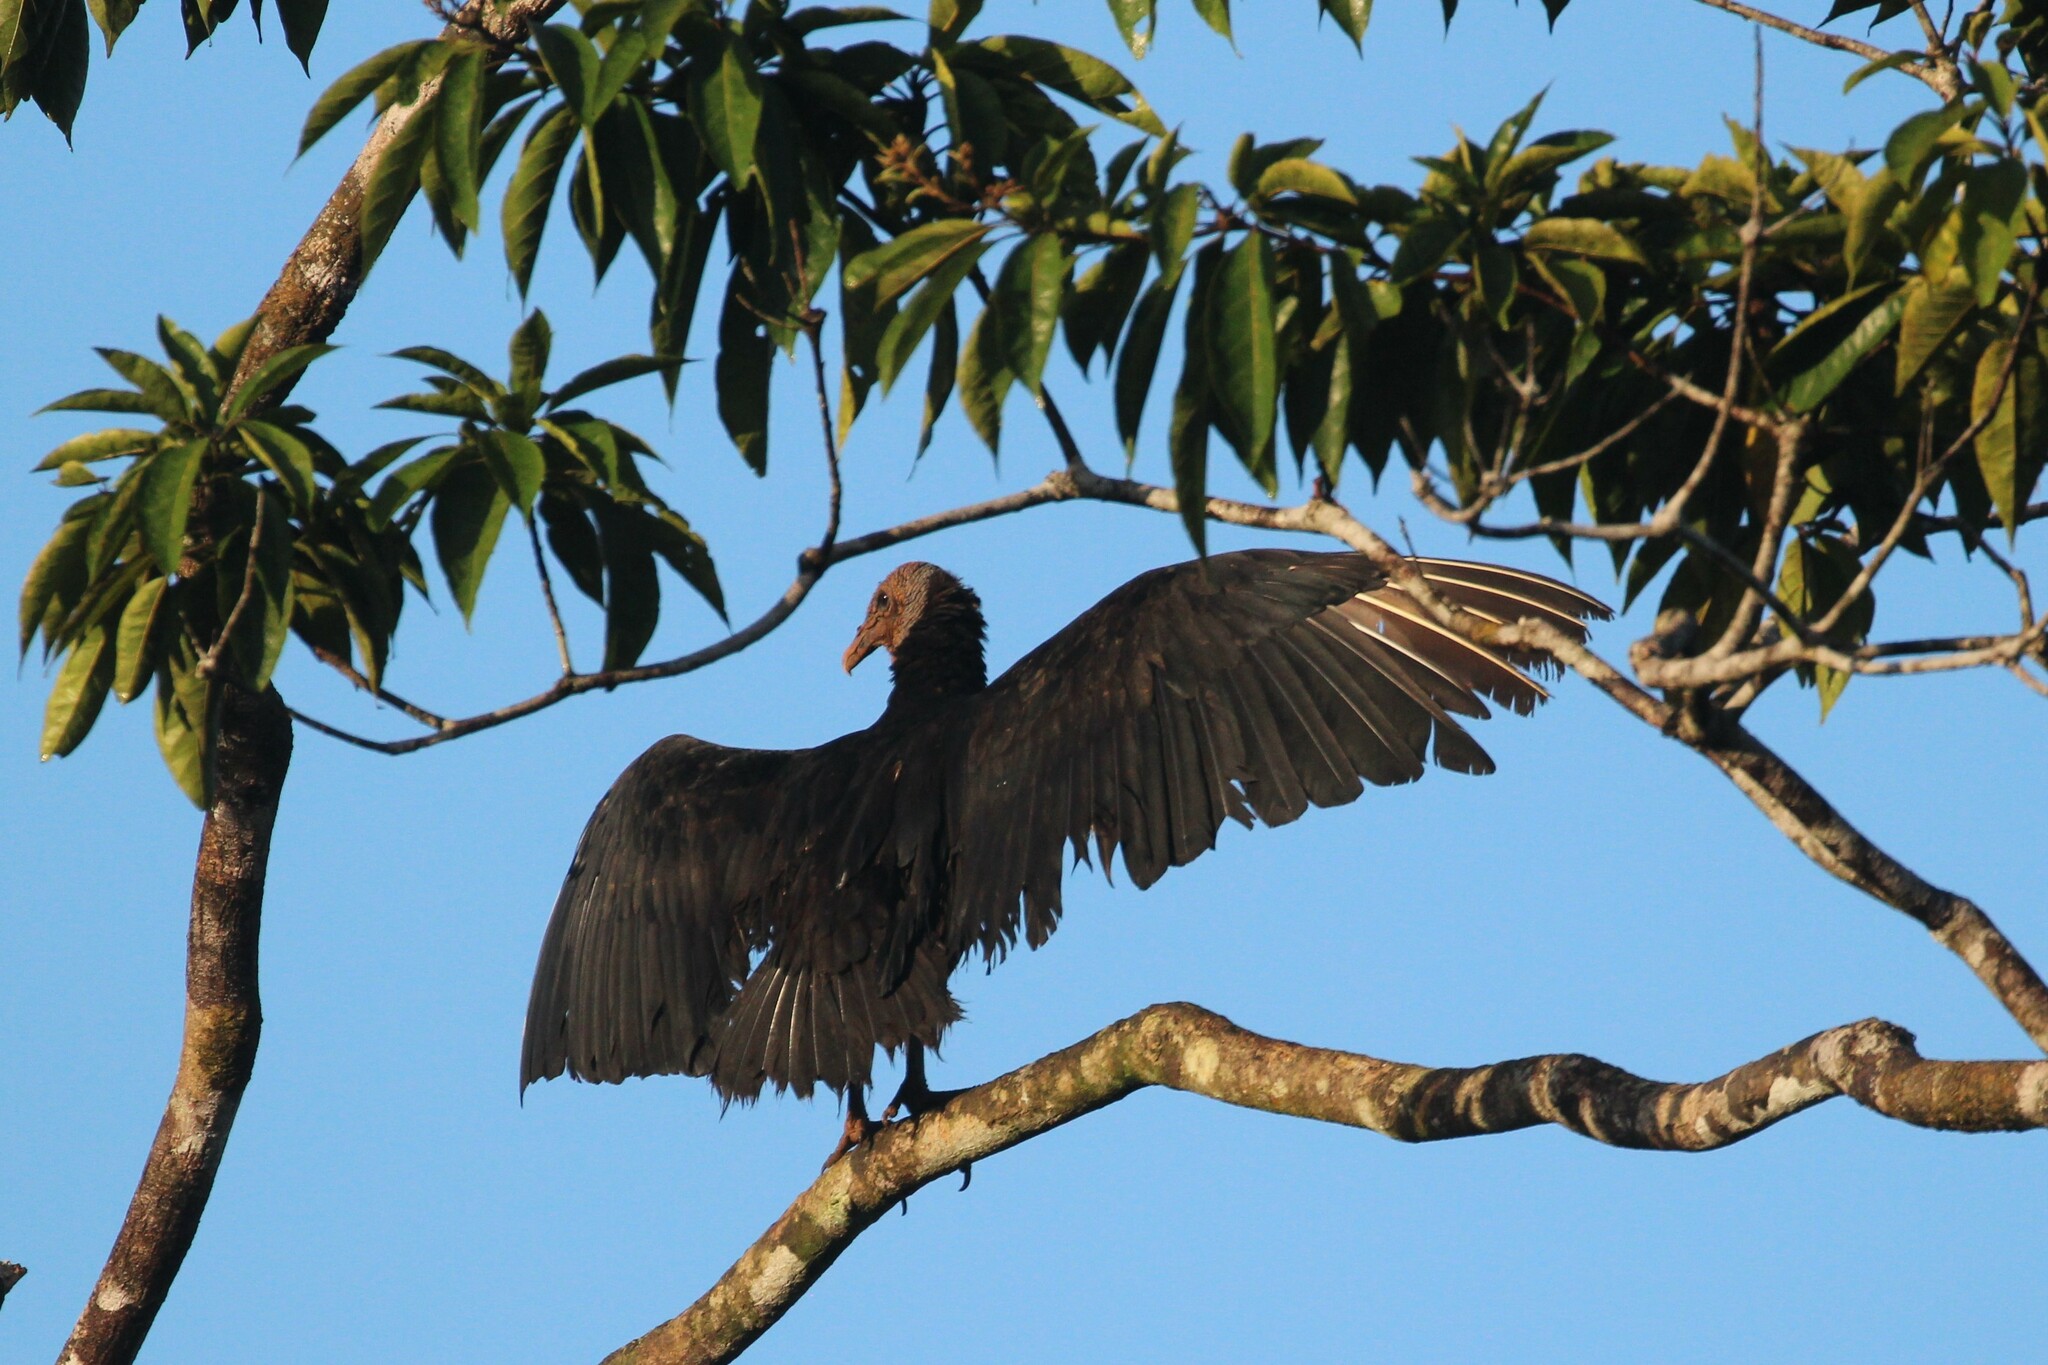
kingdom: Animalia
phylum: Chordata
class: Aves
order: Accipitriformes
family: Cathartidae
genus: Coragyps
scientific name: Coragyps atratus
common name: Black vulture
